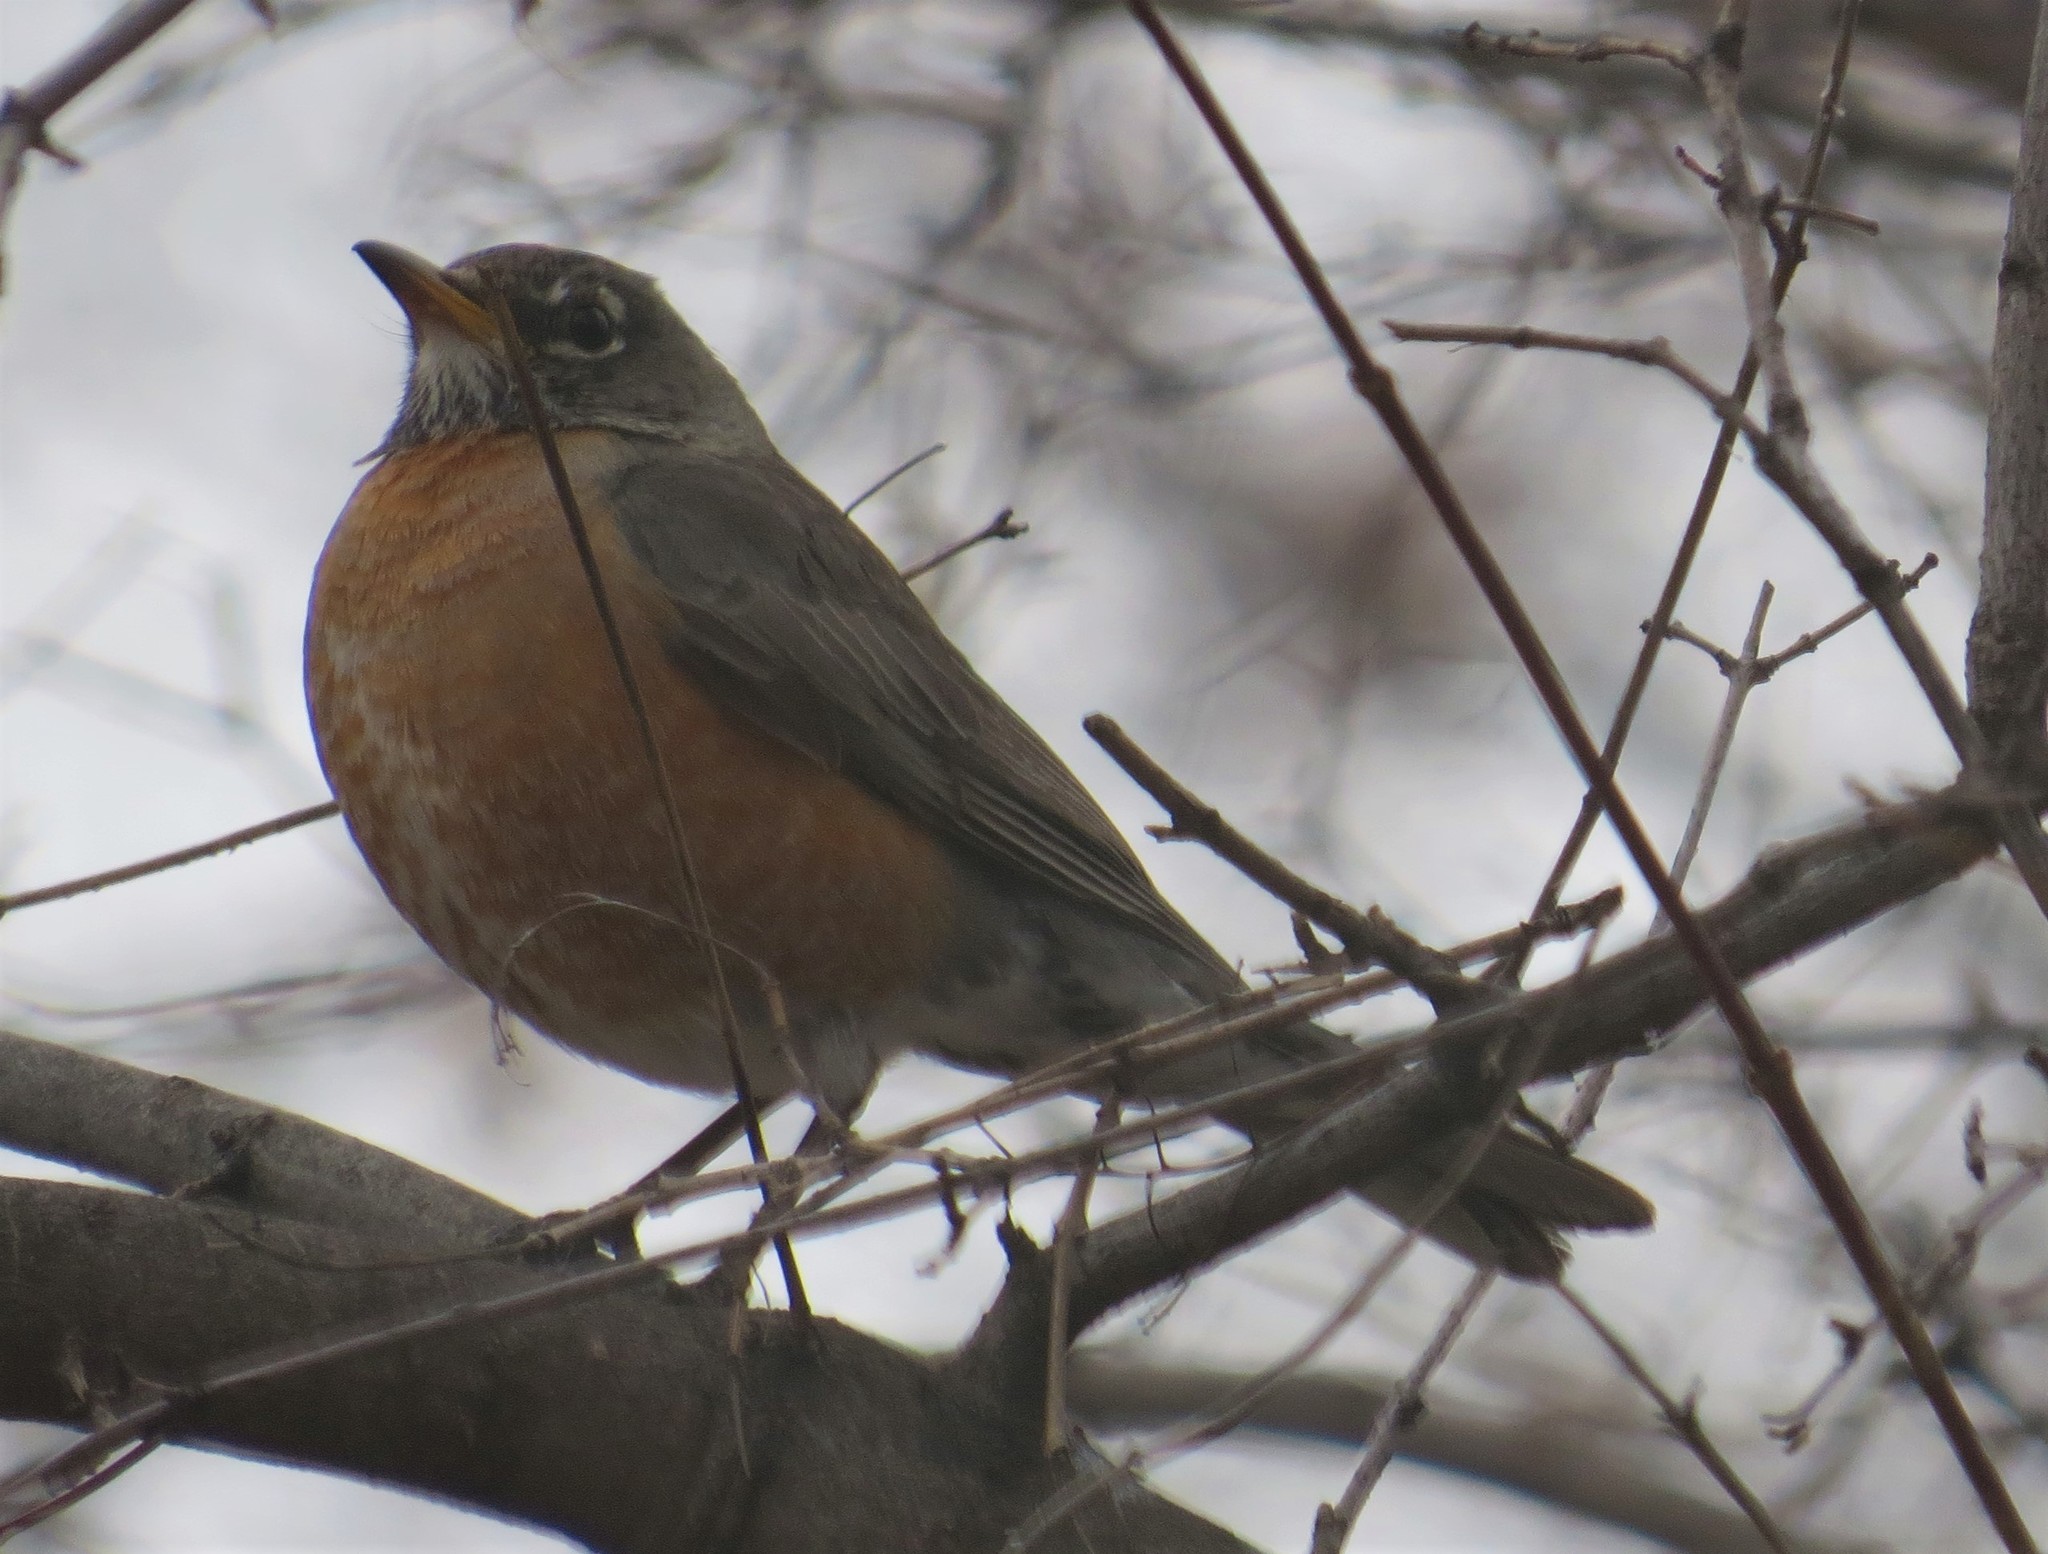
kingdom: Animalia
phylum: Chordata
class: Aves
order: Passeriformes
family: Turdidae
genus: Turdus
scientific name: Turdus migratorius
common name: American robin
